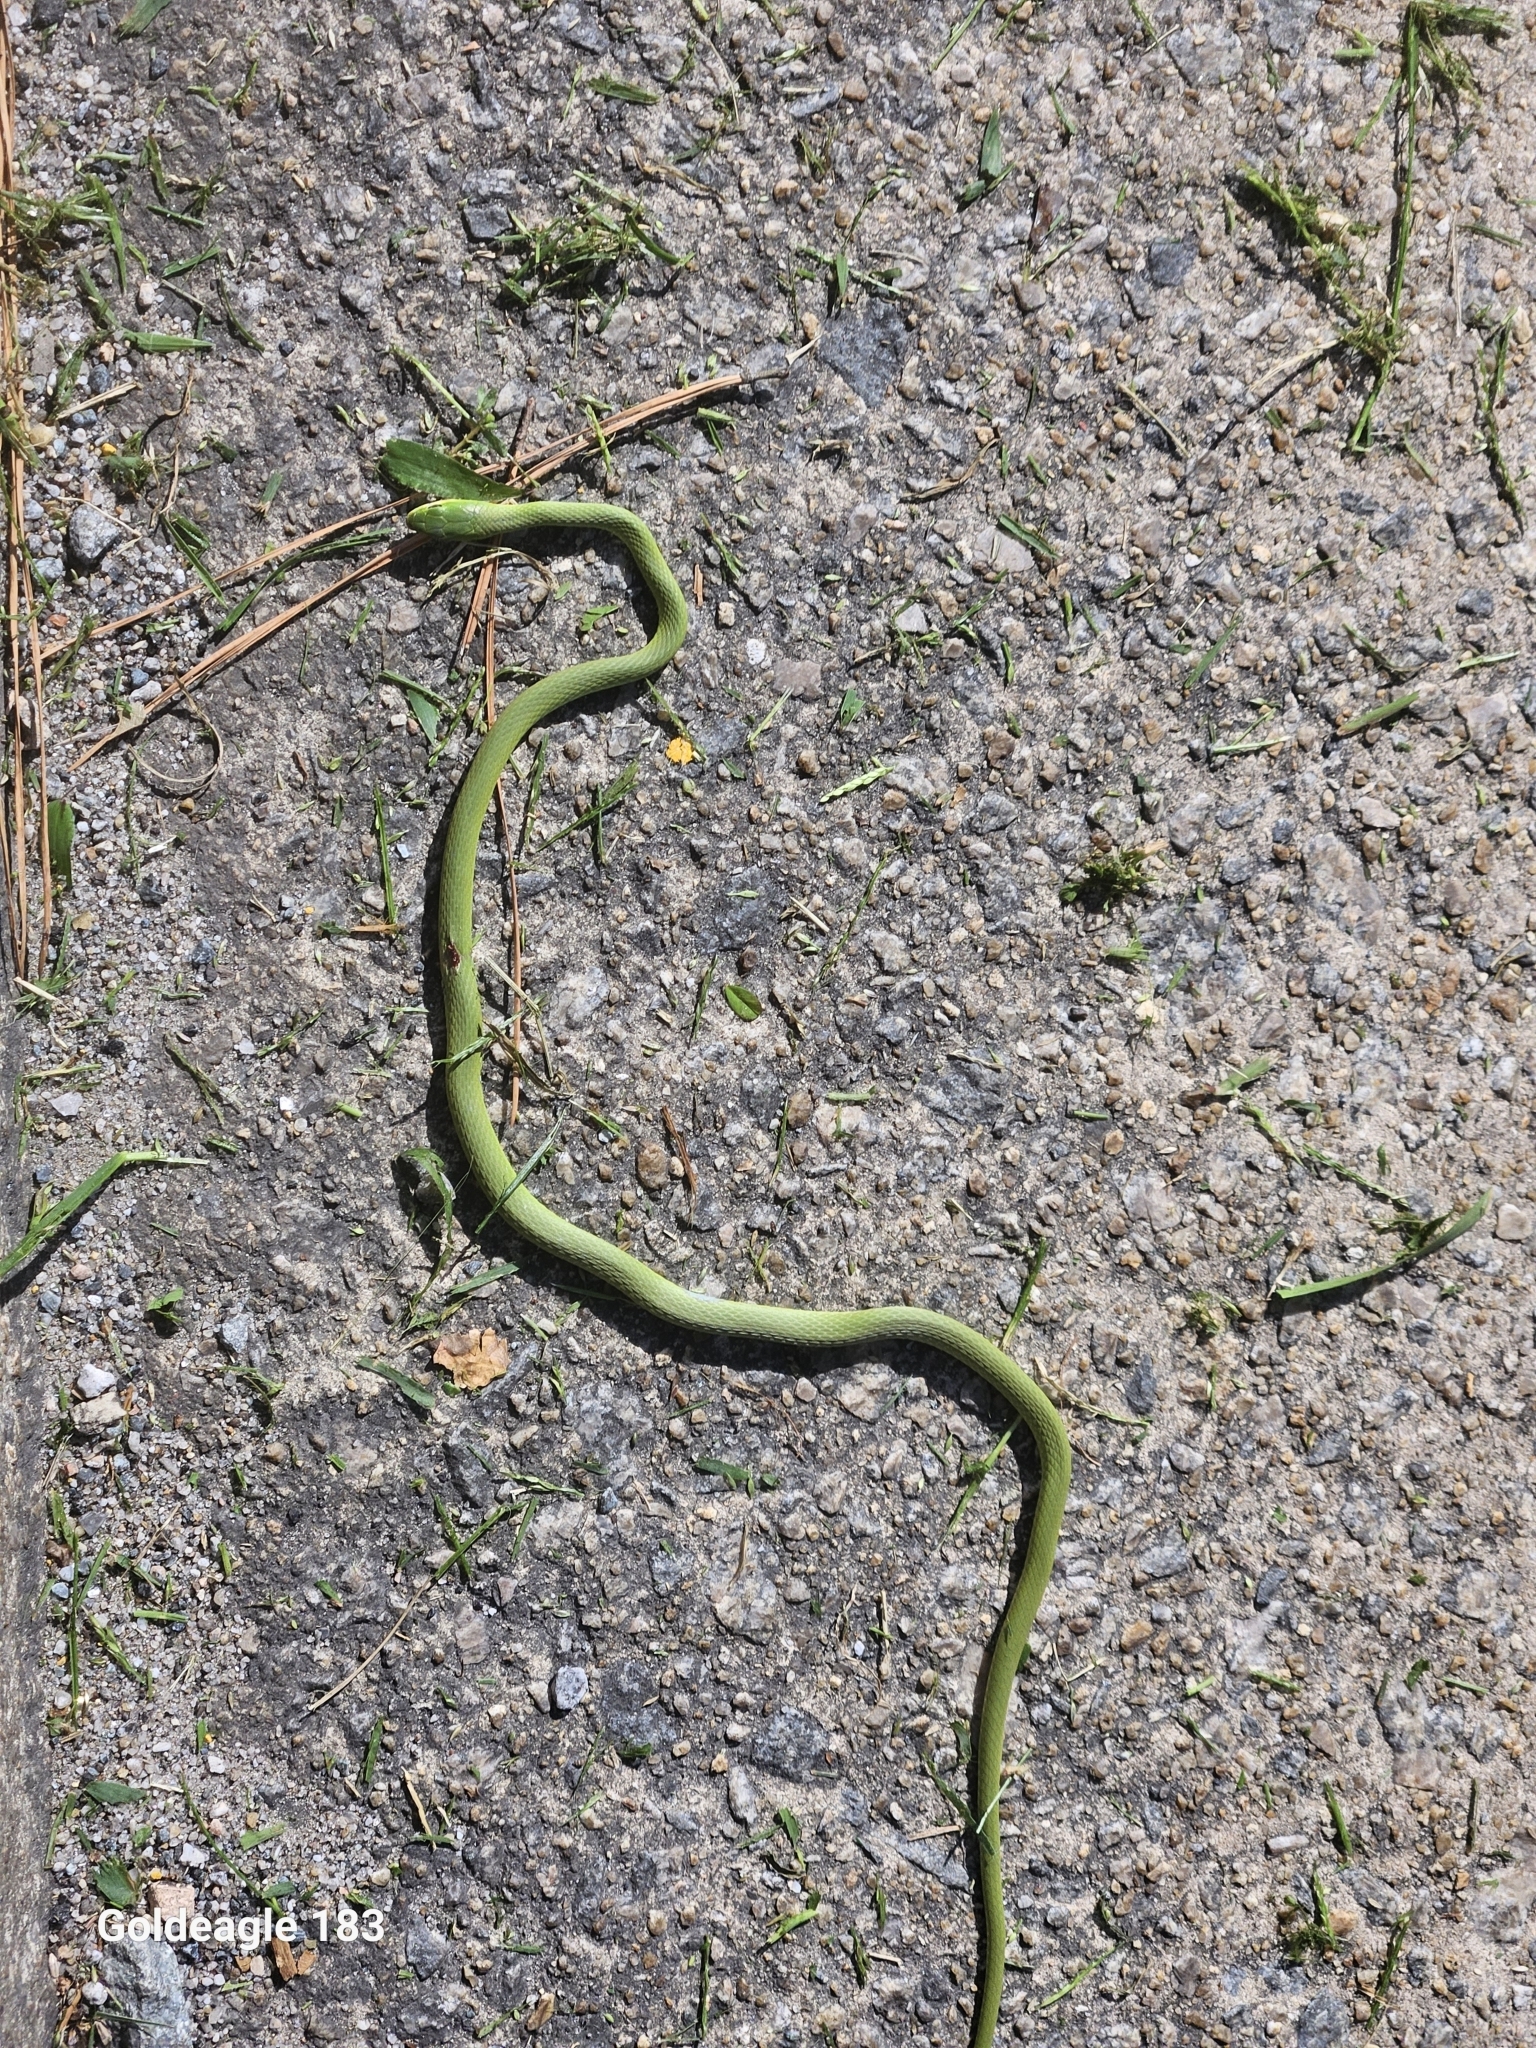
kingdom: Animalia
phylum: Chordata
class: Squamata
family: Colubridae
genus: Opheodrys
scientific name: Opheodrys aestivus
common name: Rough greensnake
